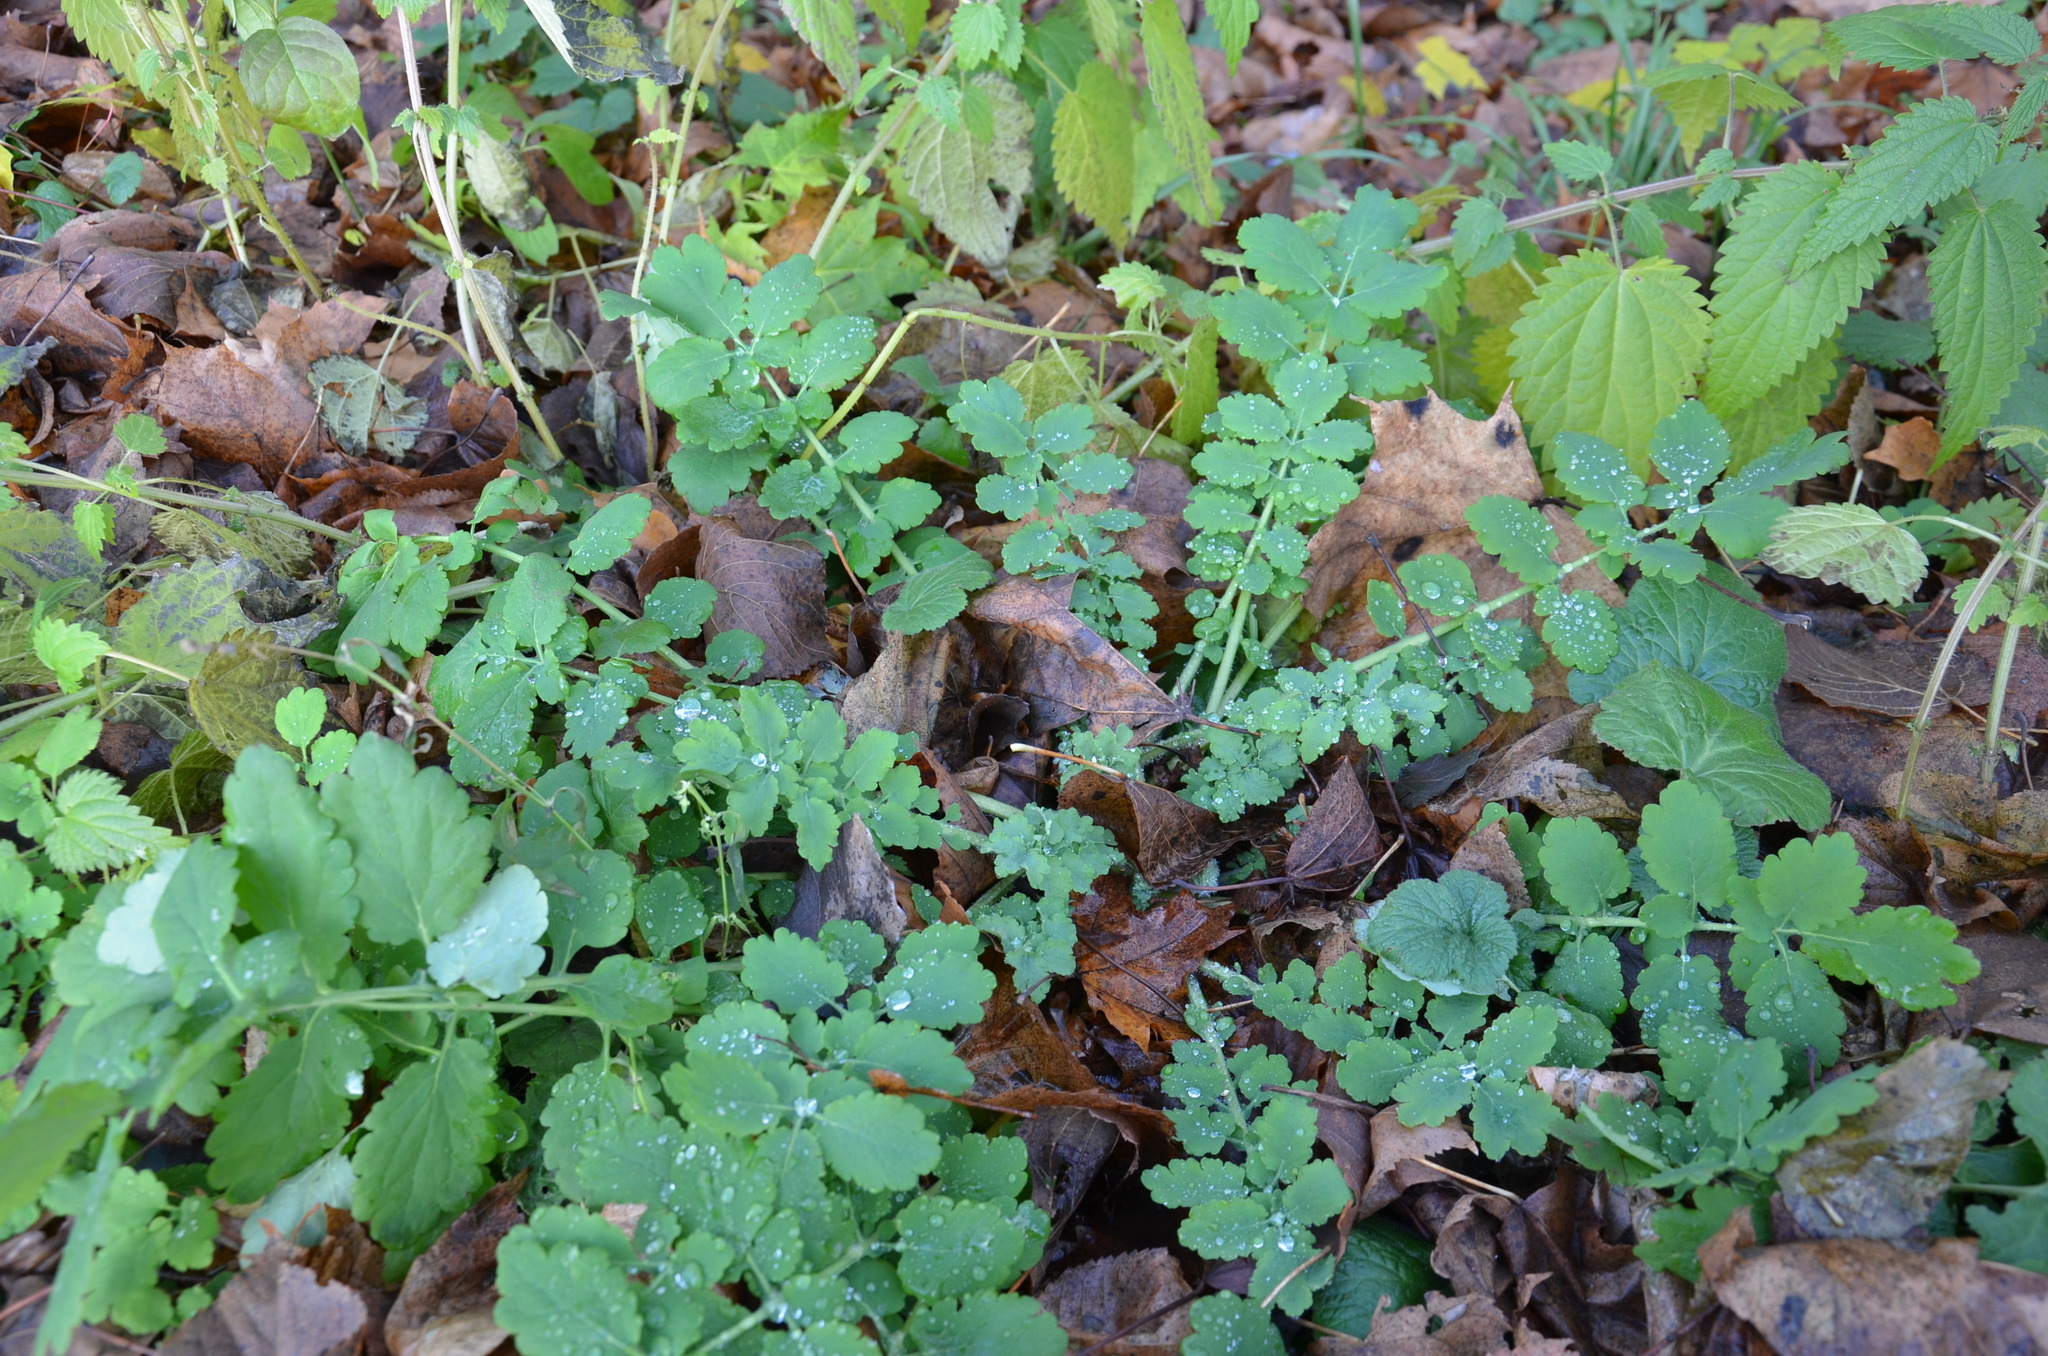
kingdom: Plantae
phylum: Tracheophyta
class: Magnoliopsida
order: Ranunculales
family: Papaveraceae
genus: Chelidonium
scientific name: Chelidonium majus
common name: Greater celandine
